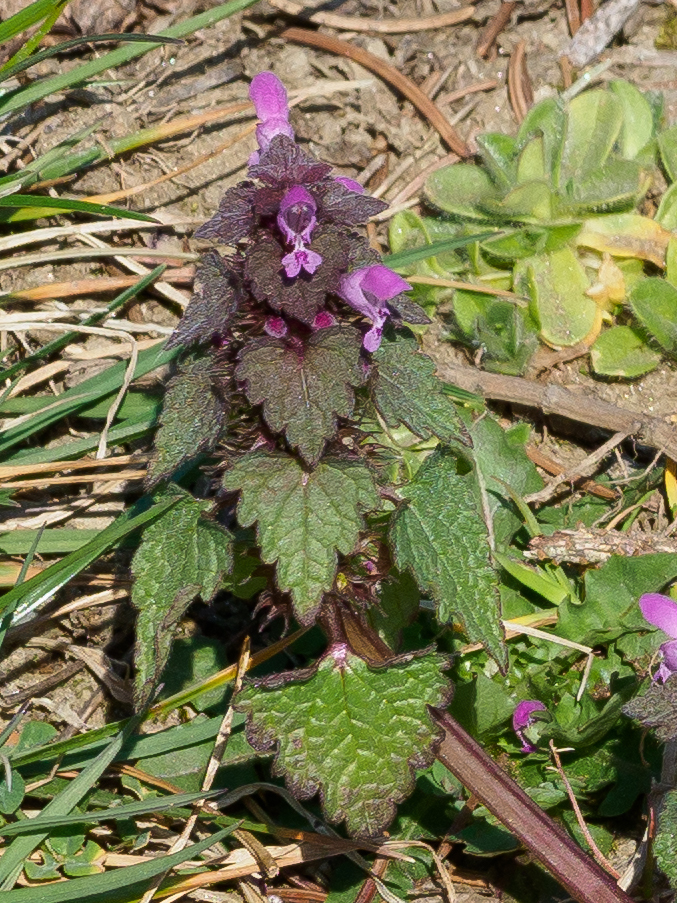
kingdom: Plantae
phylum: Tracheophyta
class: Magnoliopsida
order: Lamiales
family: Lamiaceae
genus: Lamium
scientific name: Lamium purpureum
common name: Red dead-nettle
